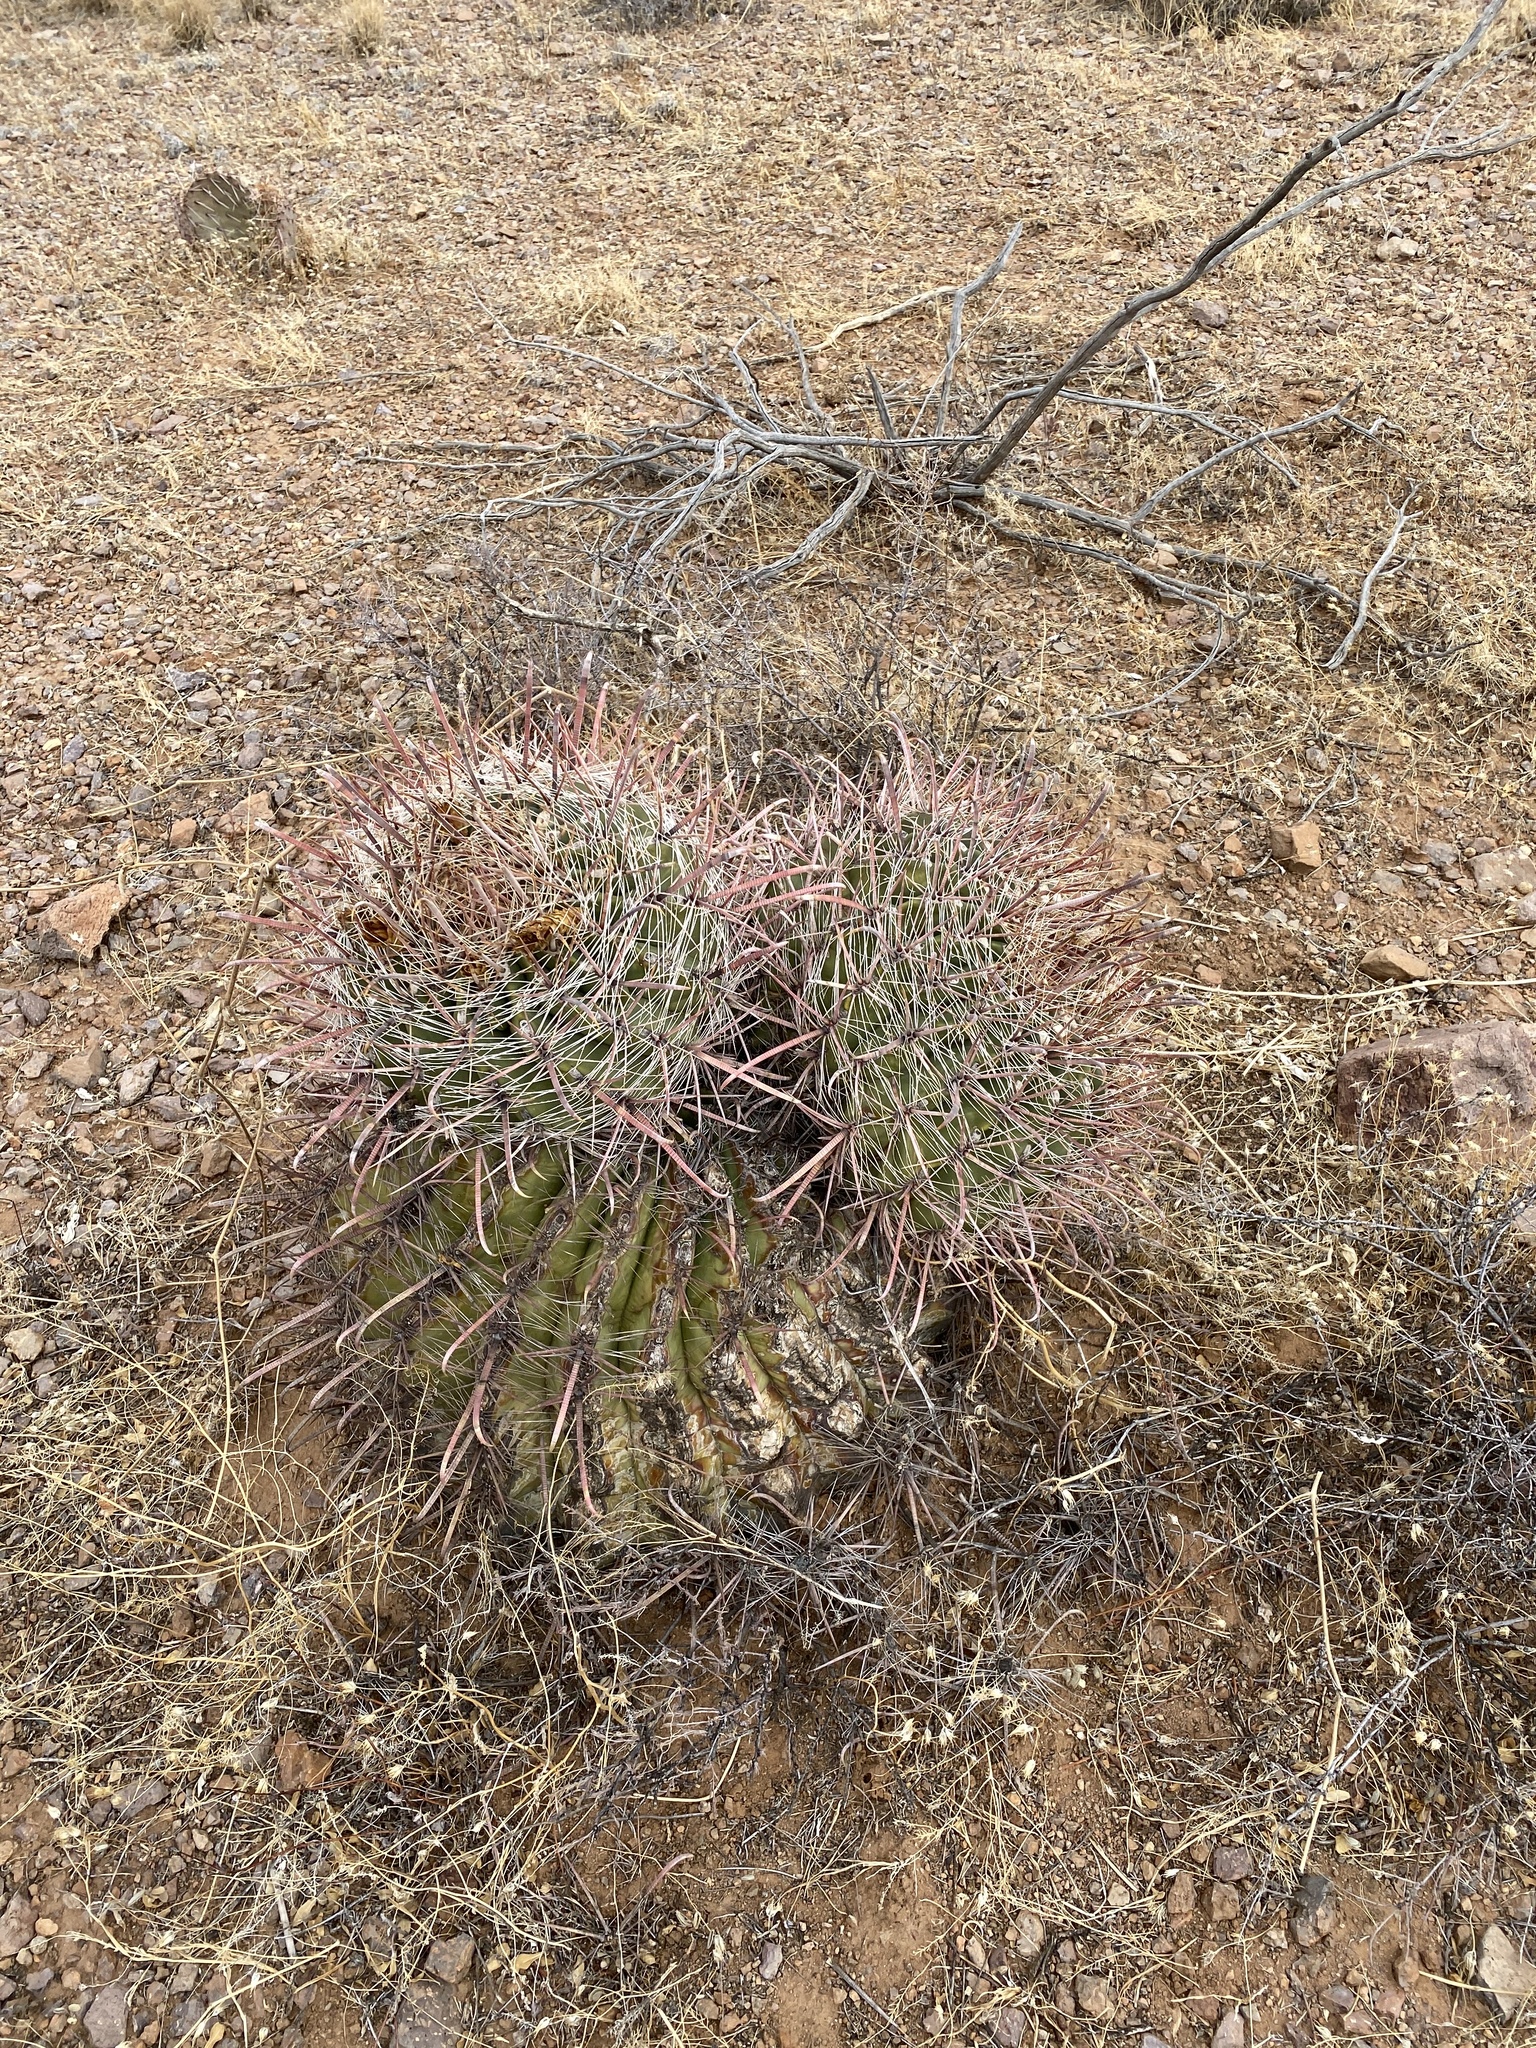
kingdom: Plantae
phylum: Tracheophyta
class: Magnoliopsida
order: Caryophyllales
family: Cactaceae
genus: Ferocactus
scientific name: Ferocactus wislizeni
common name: Candy barrel cactus
